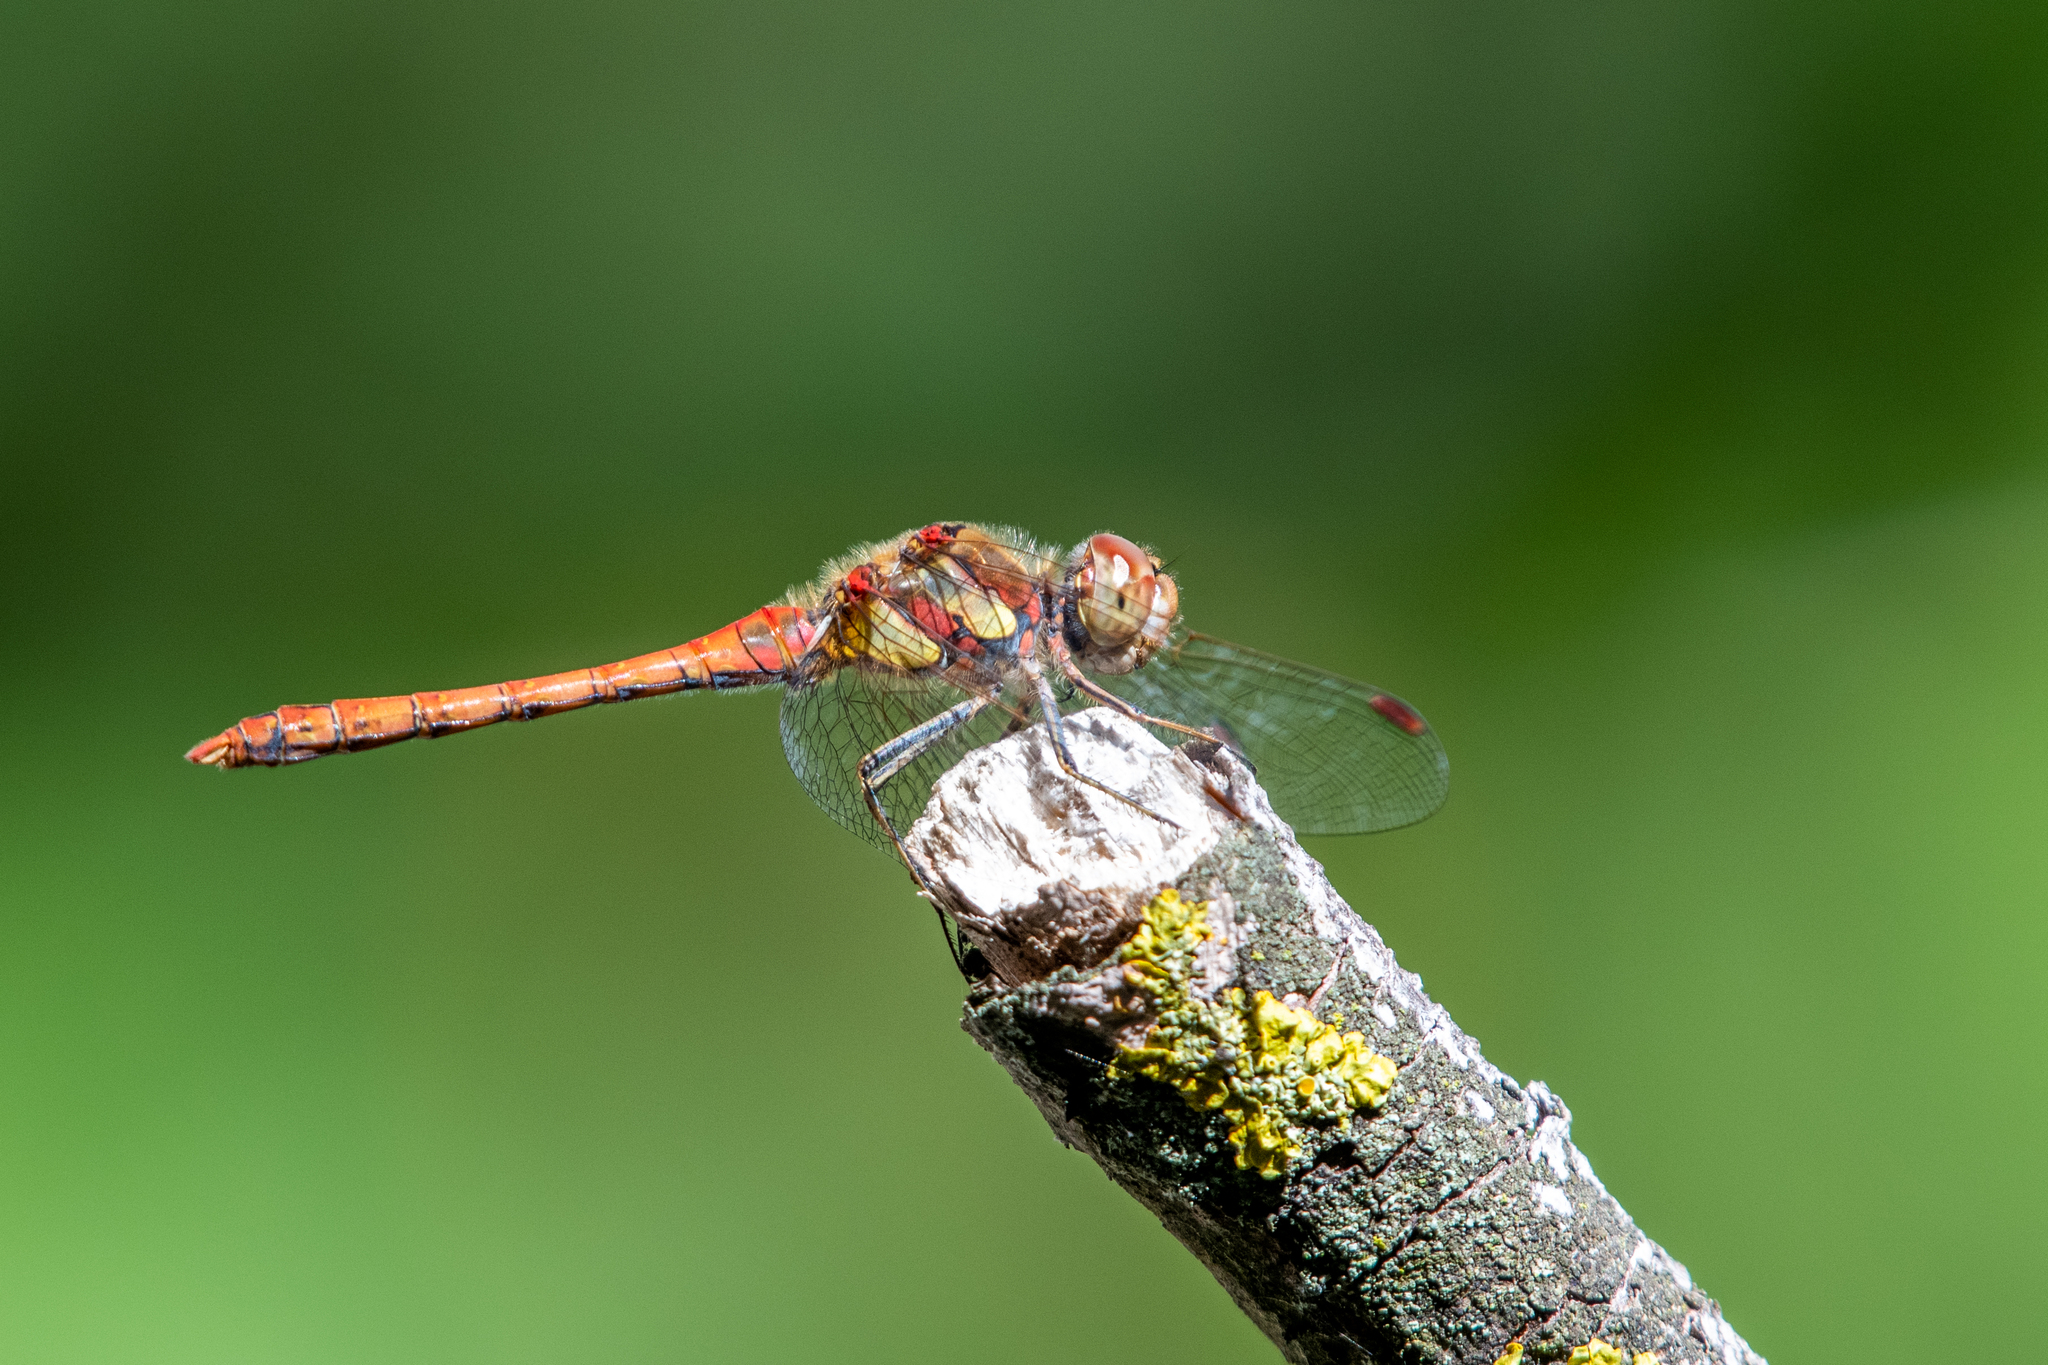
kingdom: Animalia
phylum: Arthropoda
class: Insecta
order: Odonata
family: Libellulidae
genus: Sympetrum
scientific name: Sympetrum striolatum
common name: Common darter
